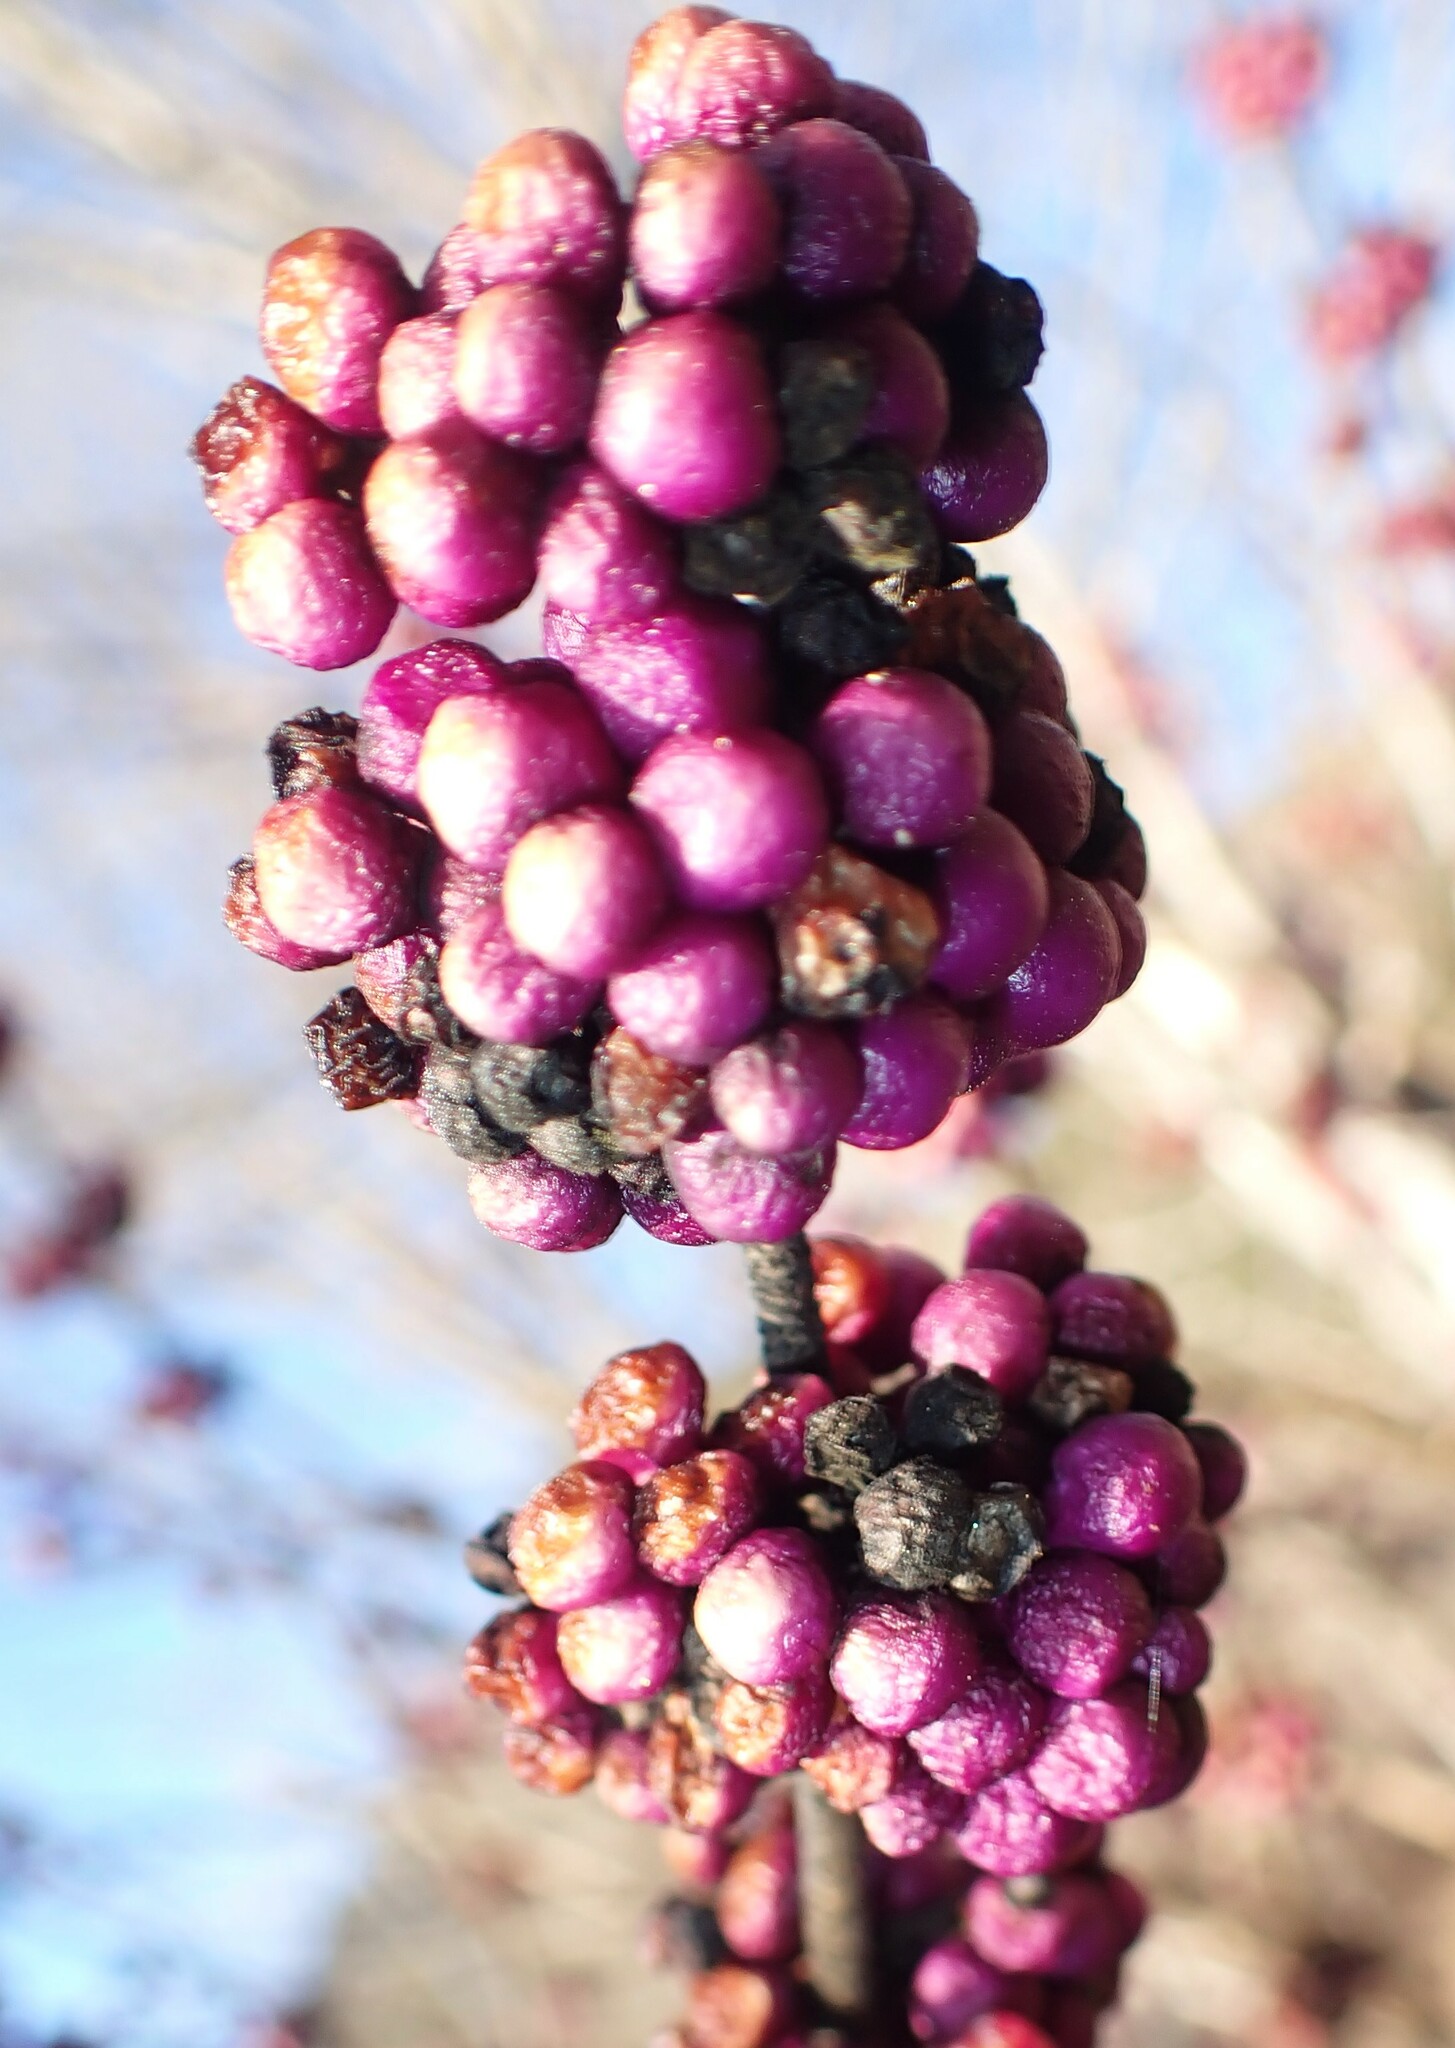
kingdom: Plantae
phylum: Tracheophyta
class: Magnoliopsida
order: Lamiales
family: Lamiaceae
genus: Callicarpa
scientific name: Callicarpa americana
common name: American beautyberry
